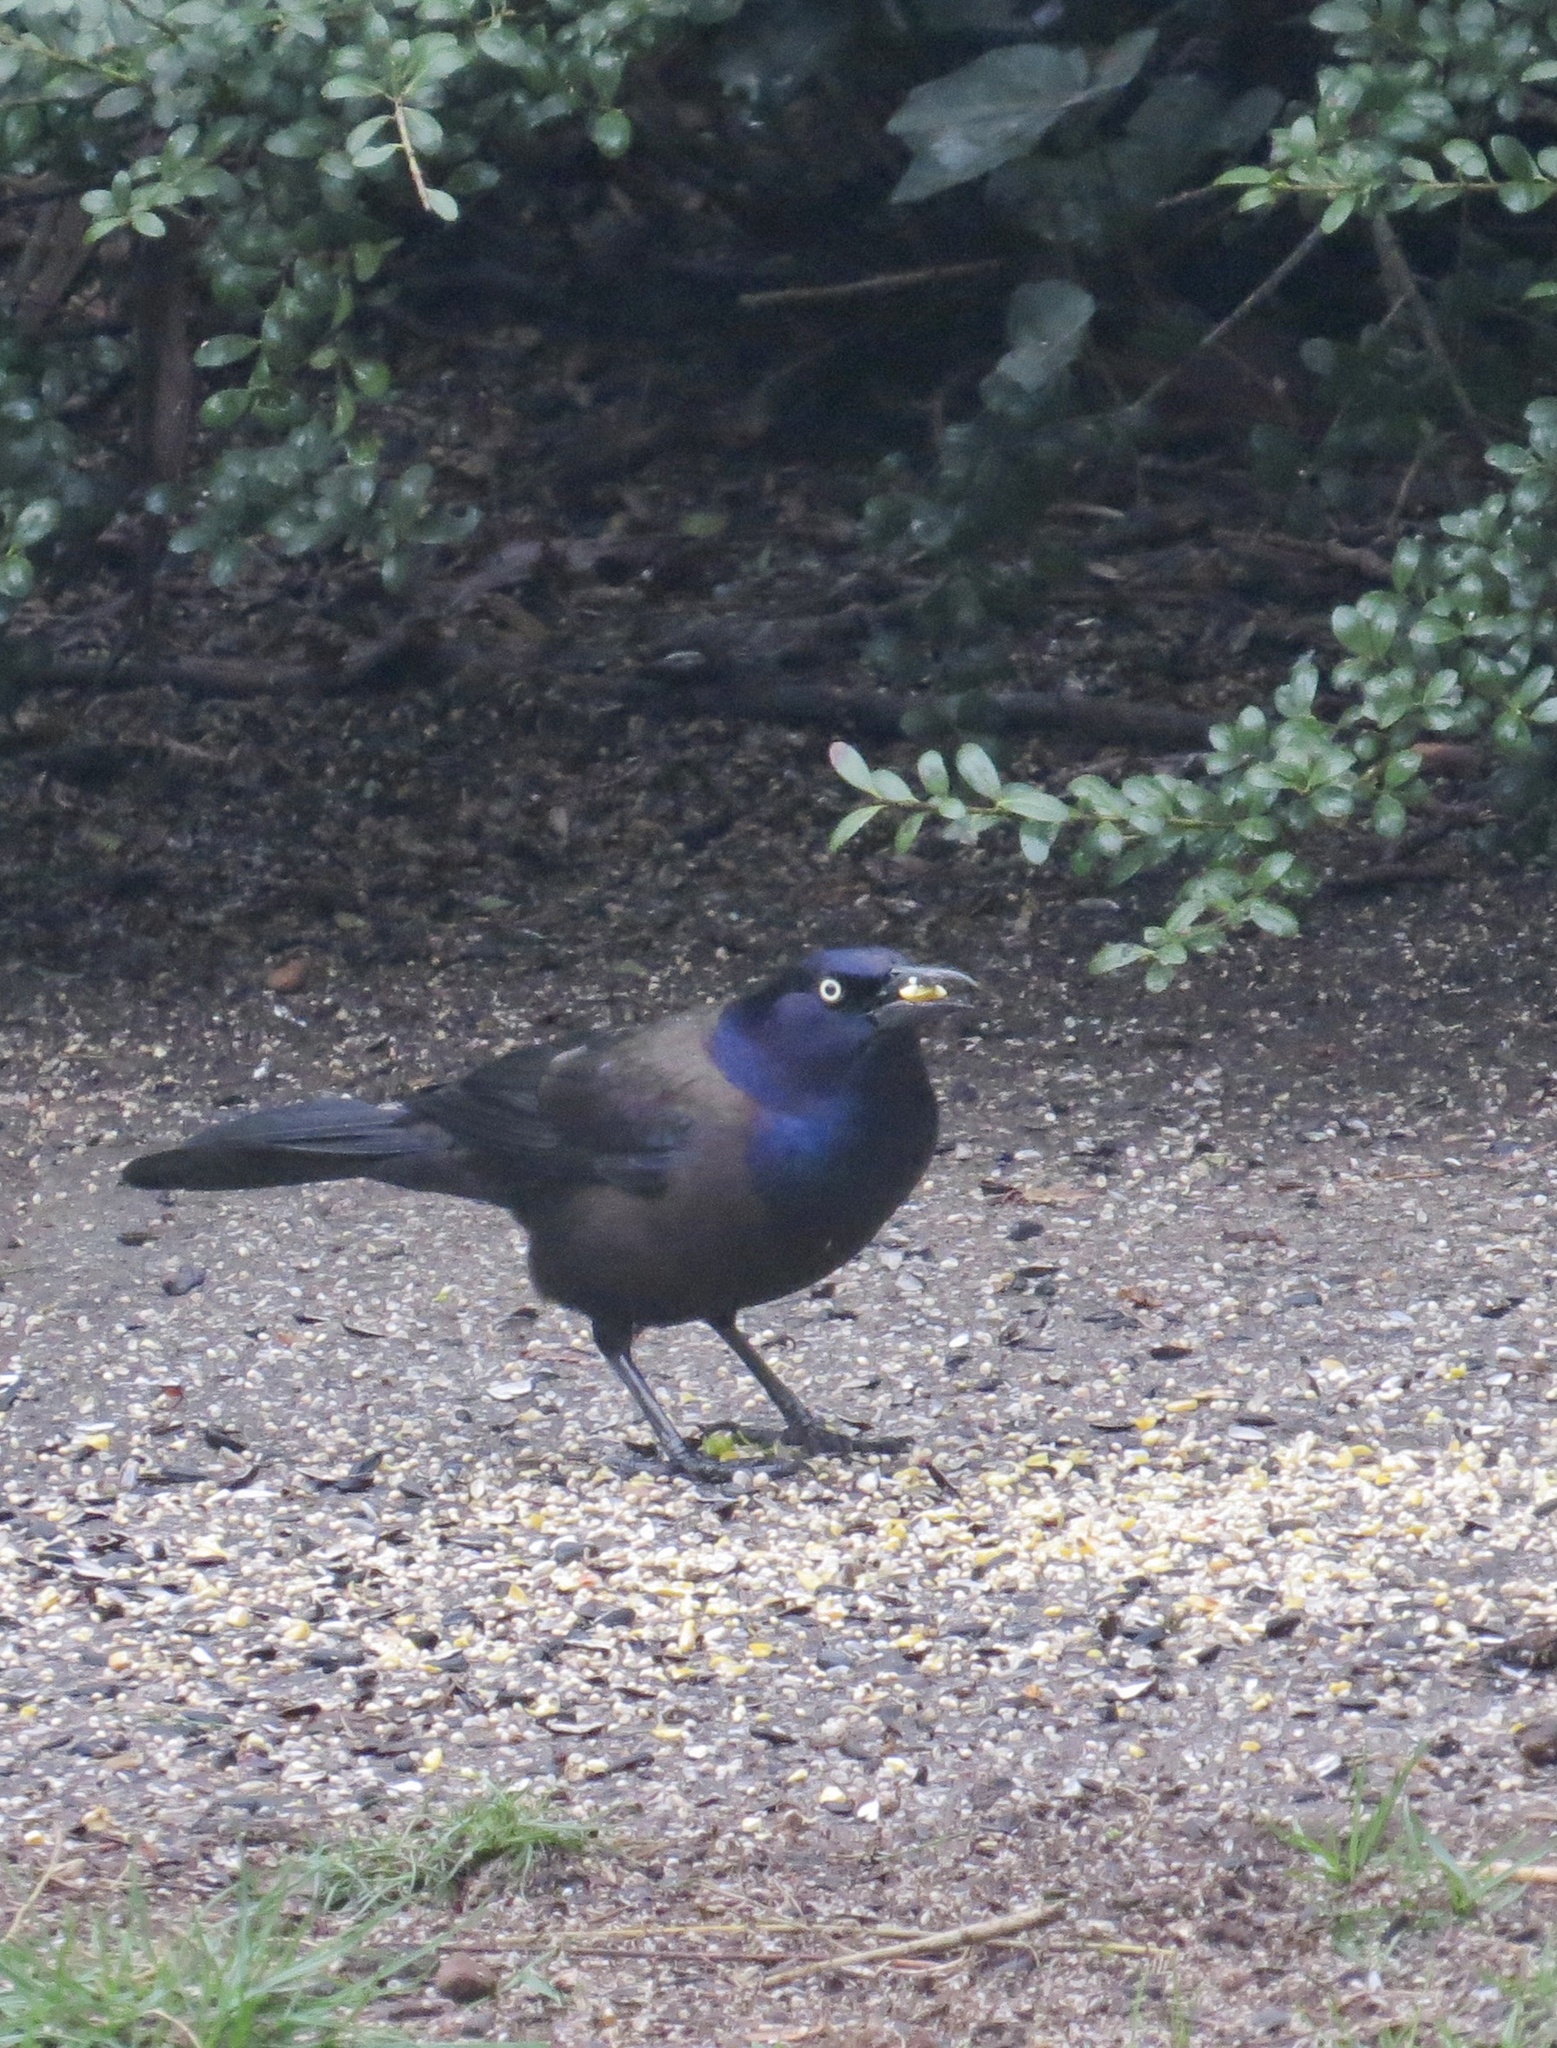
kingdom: Animalia
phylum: Chordata
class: Aves
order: Passeriformes
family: Icteridae
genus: Quiscalus
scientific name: Quiscalus quiscula
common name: Common grackle
